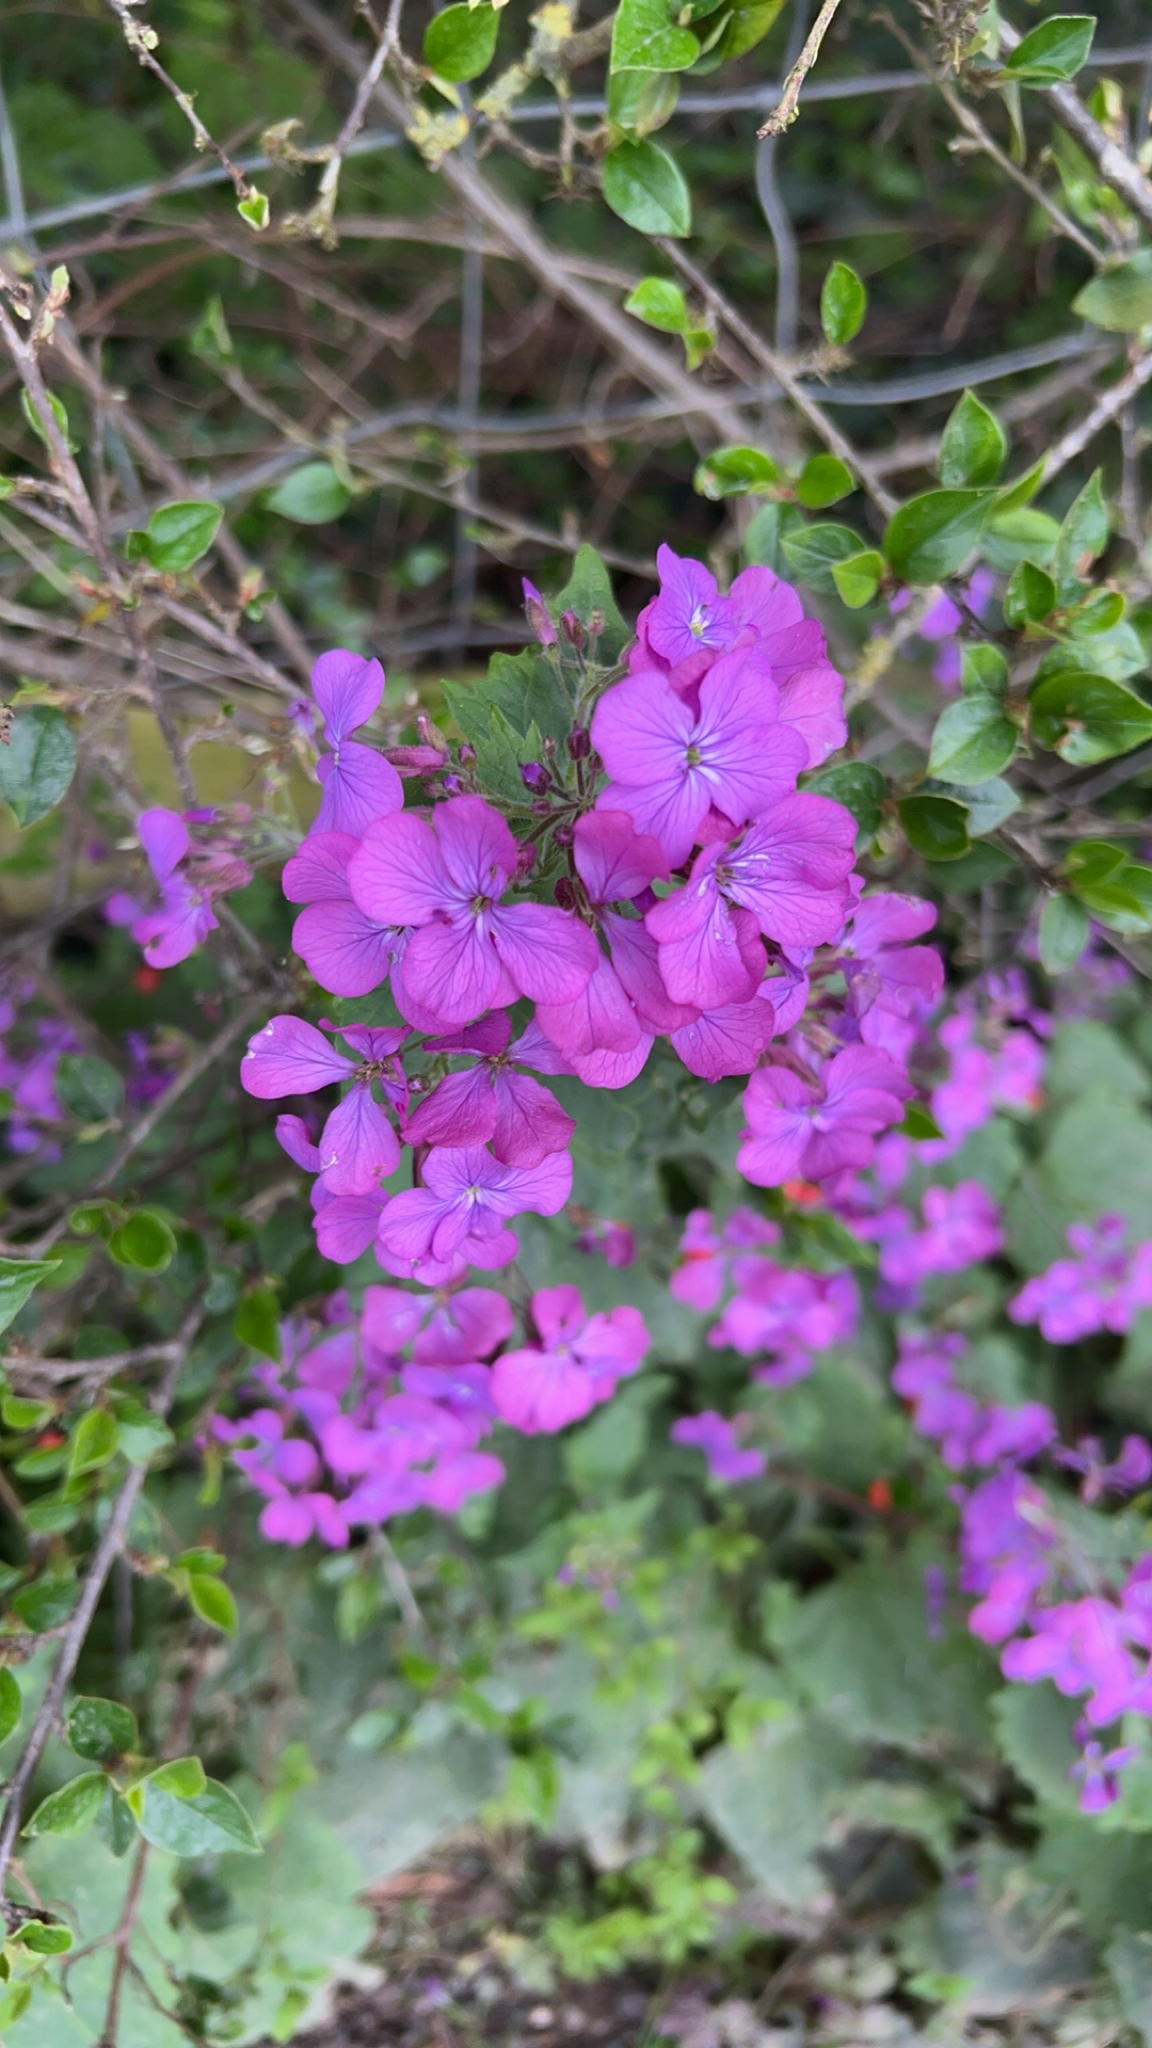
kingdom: Plantae
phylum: Tracheophyta
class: Magnoliopsida
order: Brassicales
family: Brassicaceae
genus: Lunaria
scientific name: Lunaria annua
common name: Honesty
